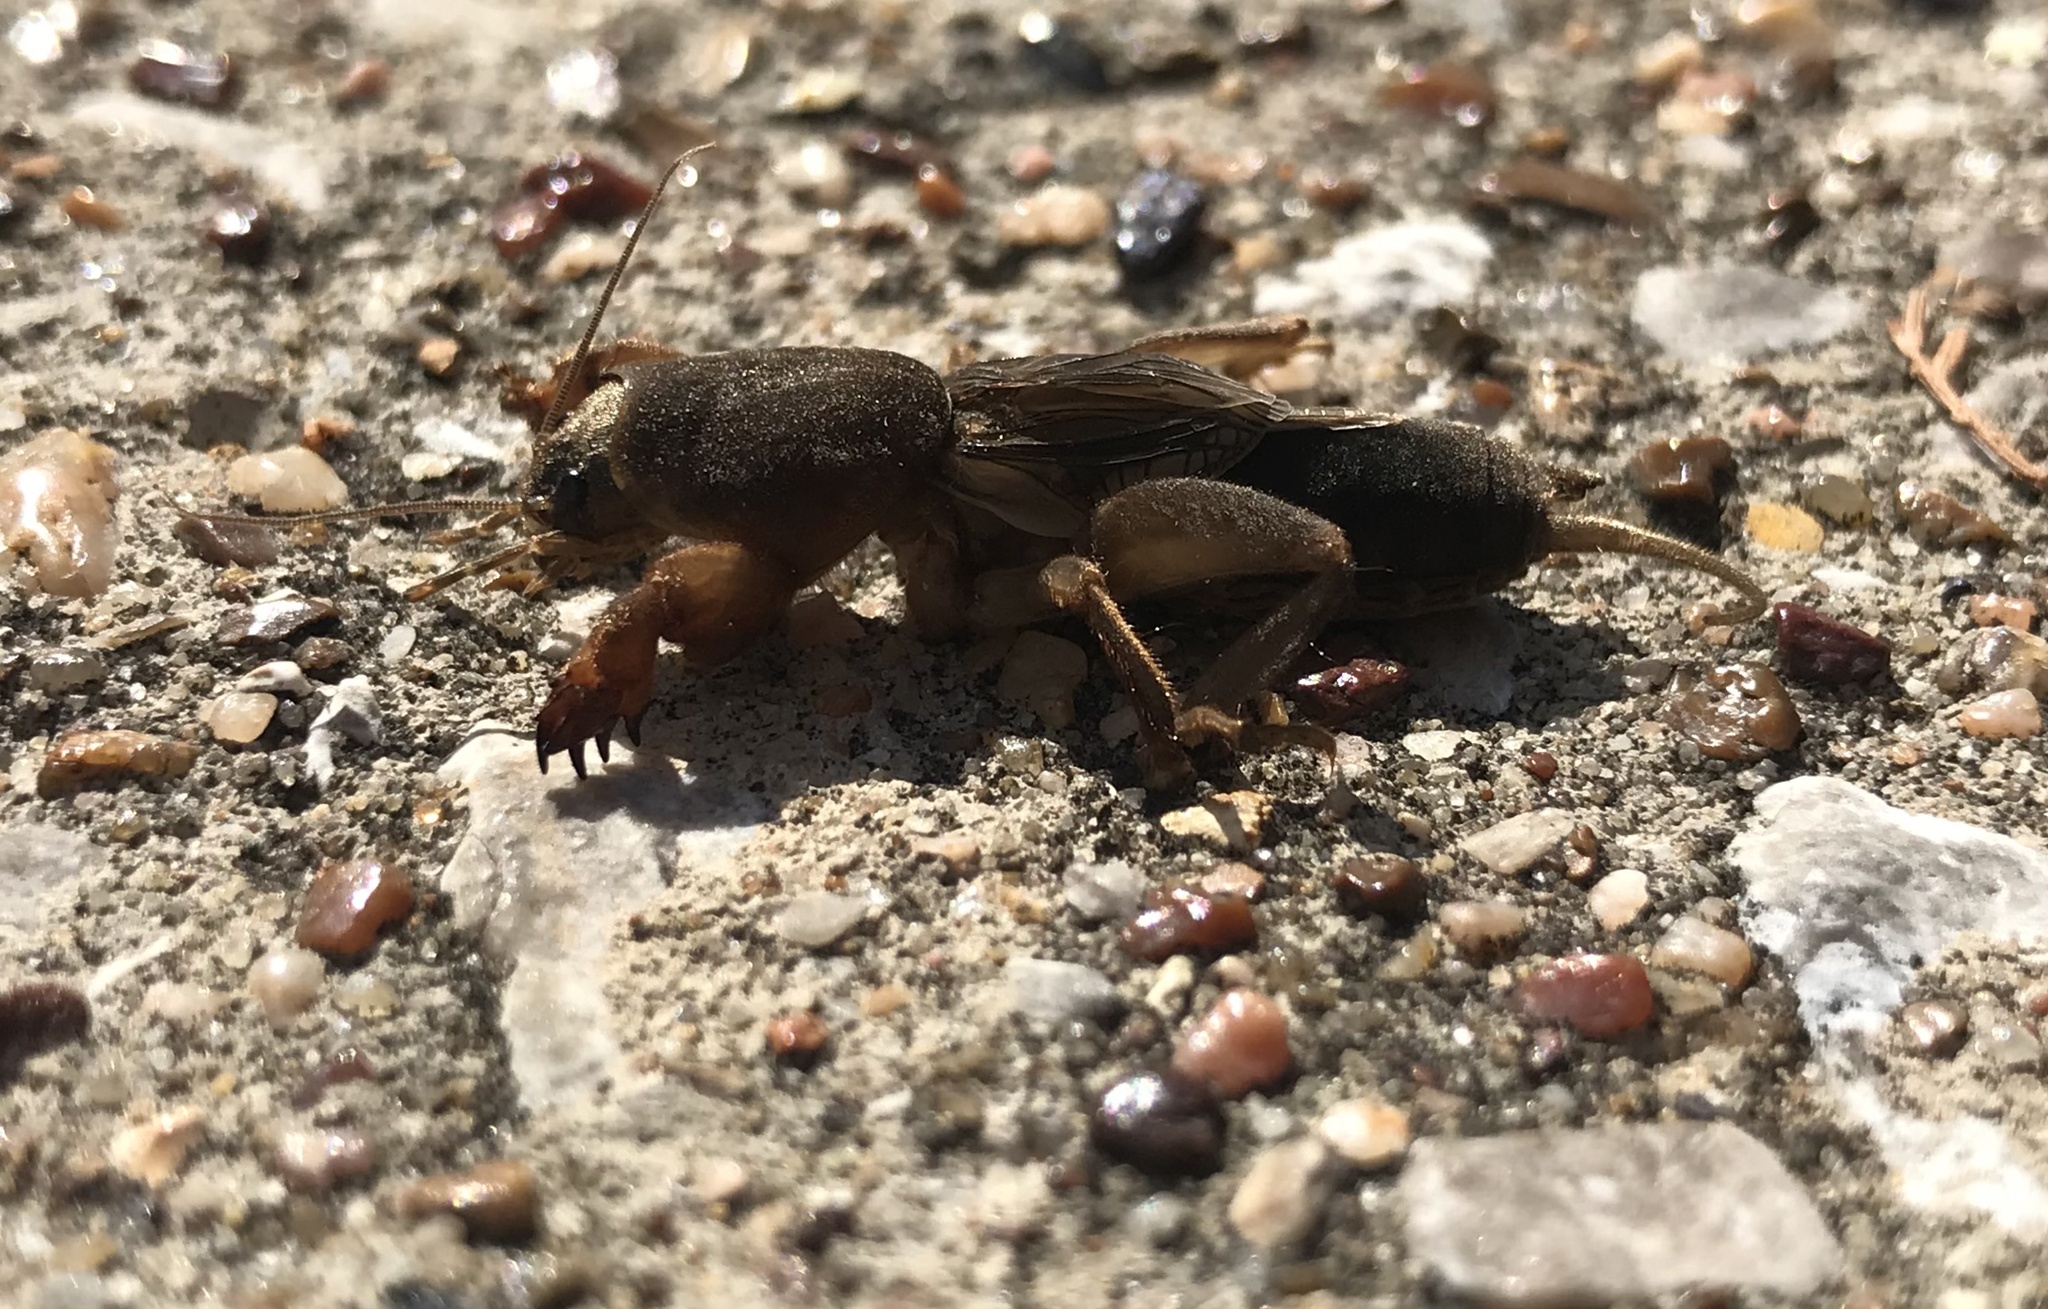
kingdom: Animalia
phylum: Arthropoda
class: Insecta
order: Orthoptera
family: Gryllotalpidae
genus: Neocurtilla
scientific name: Neocurtilla hexadactyla
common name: Northern mole cricket
